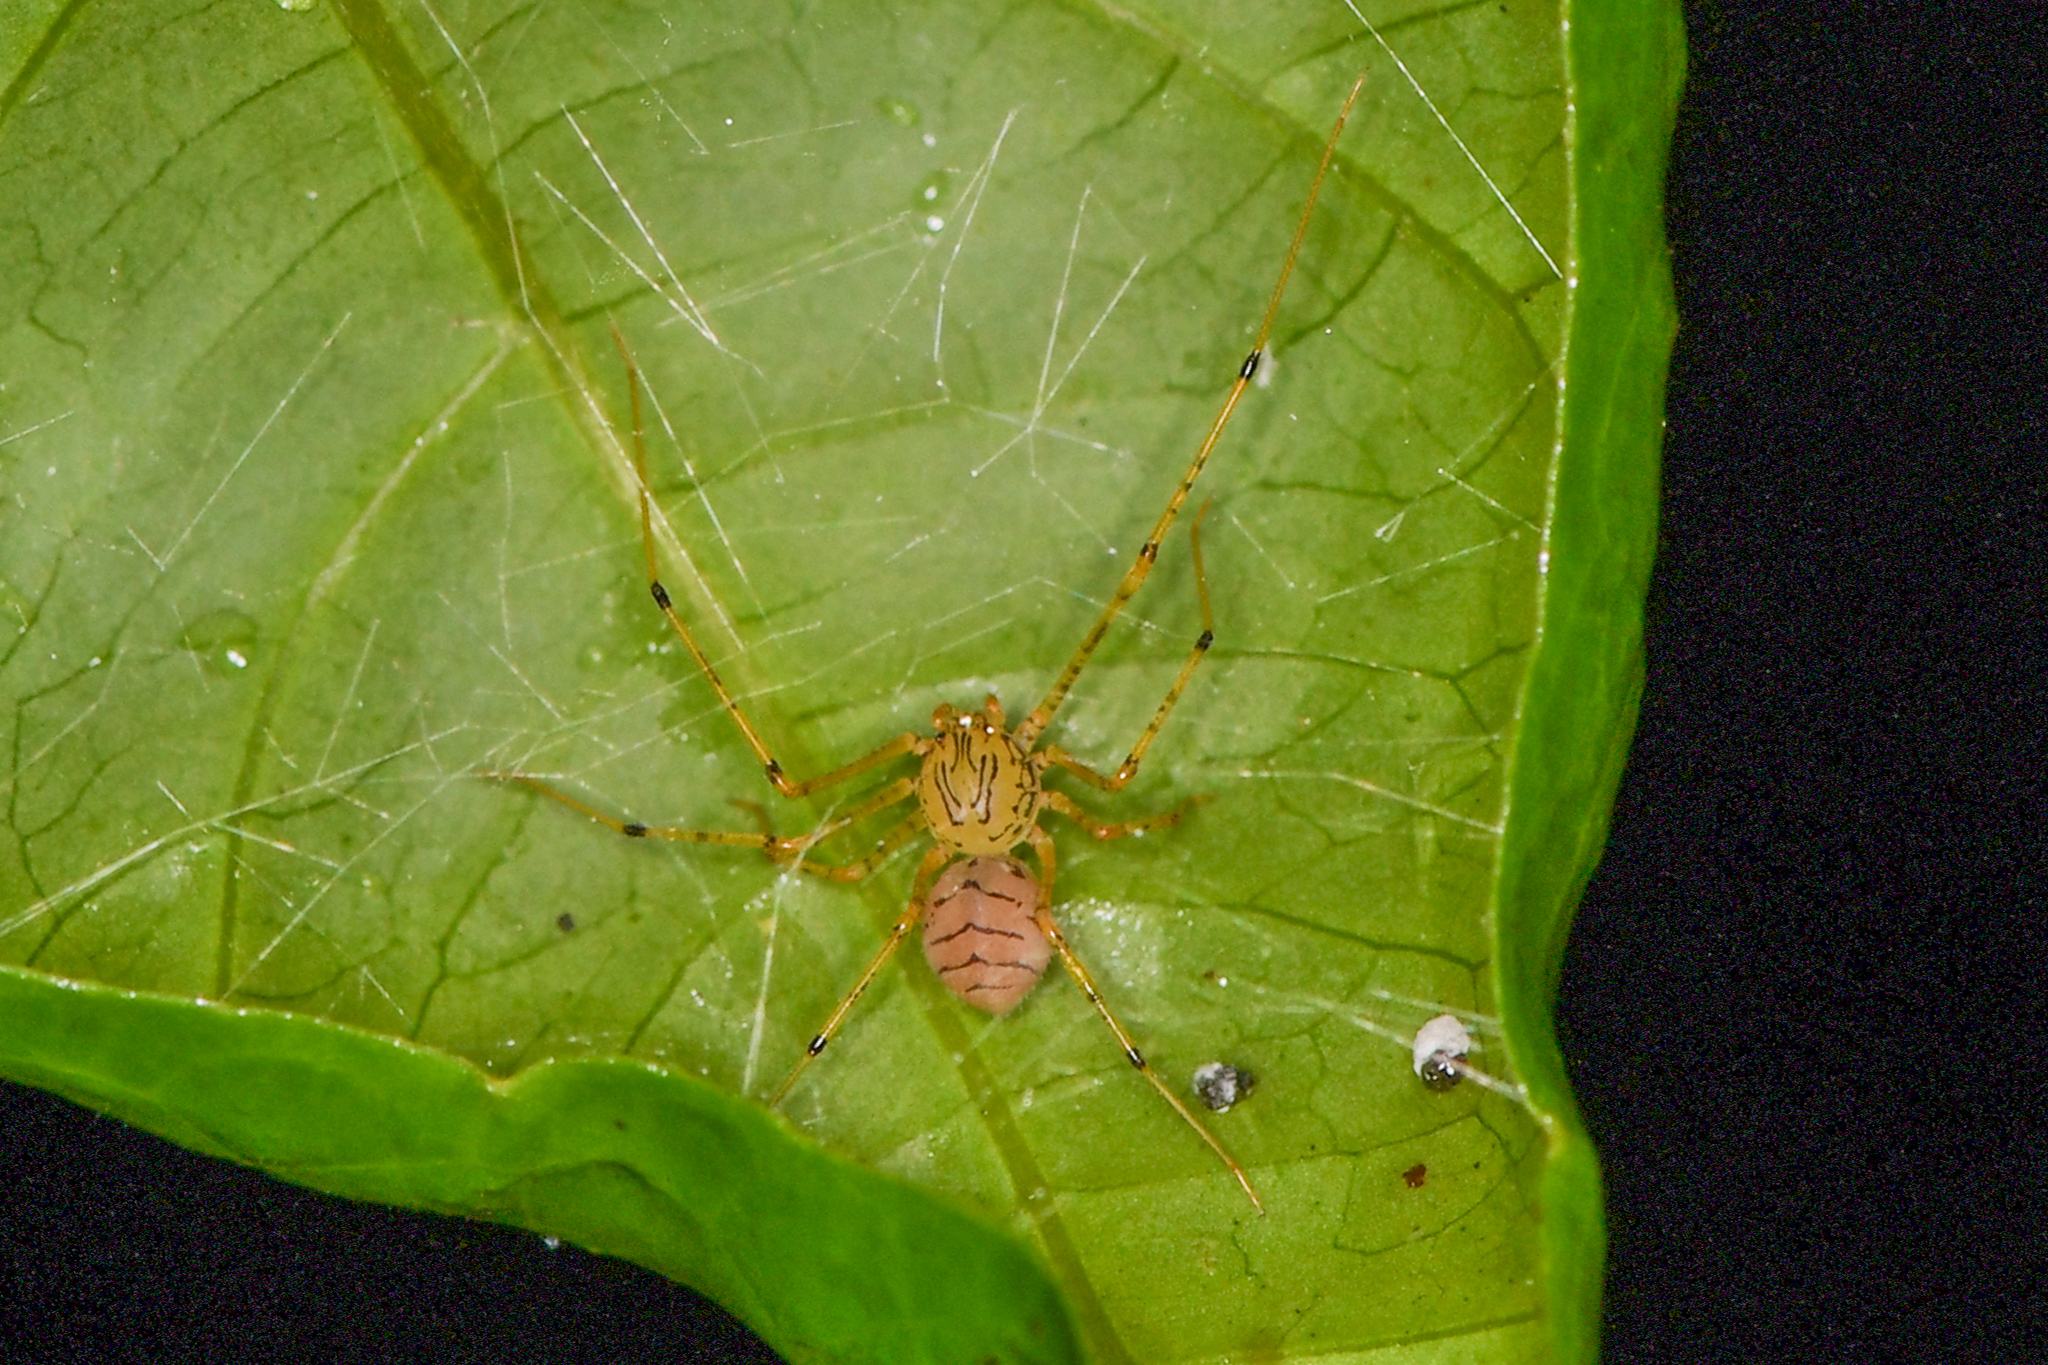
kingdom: Animalia
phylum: Arthropoda
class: Arachnida
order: Araneae
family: Scytodidae
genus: Scytodes
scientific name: Scytodes armata
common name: Spitting spiders
